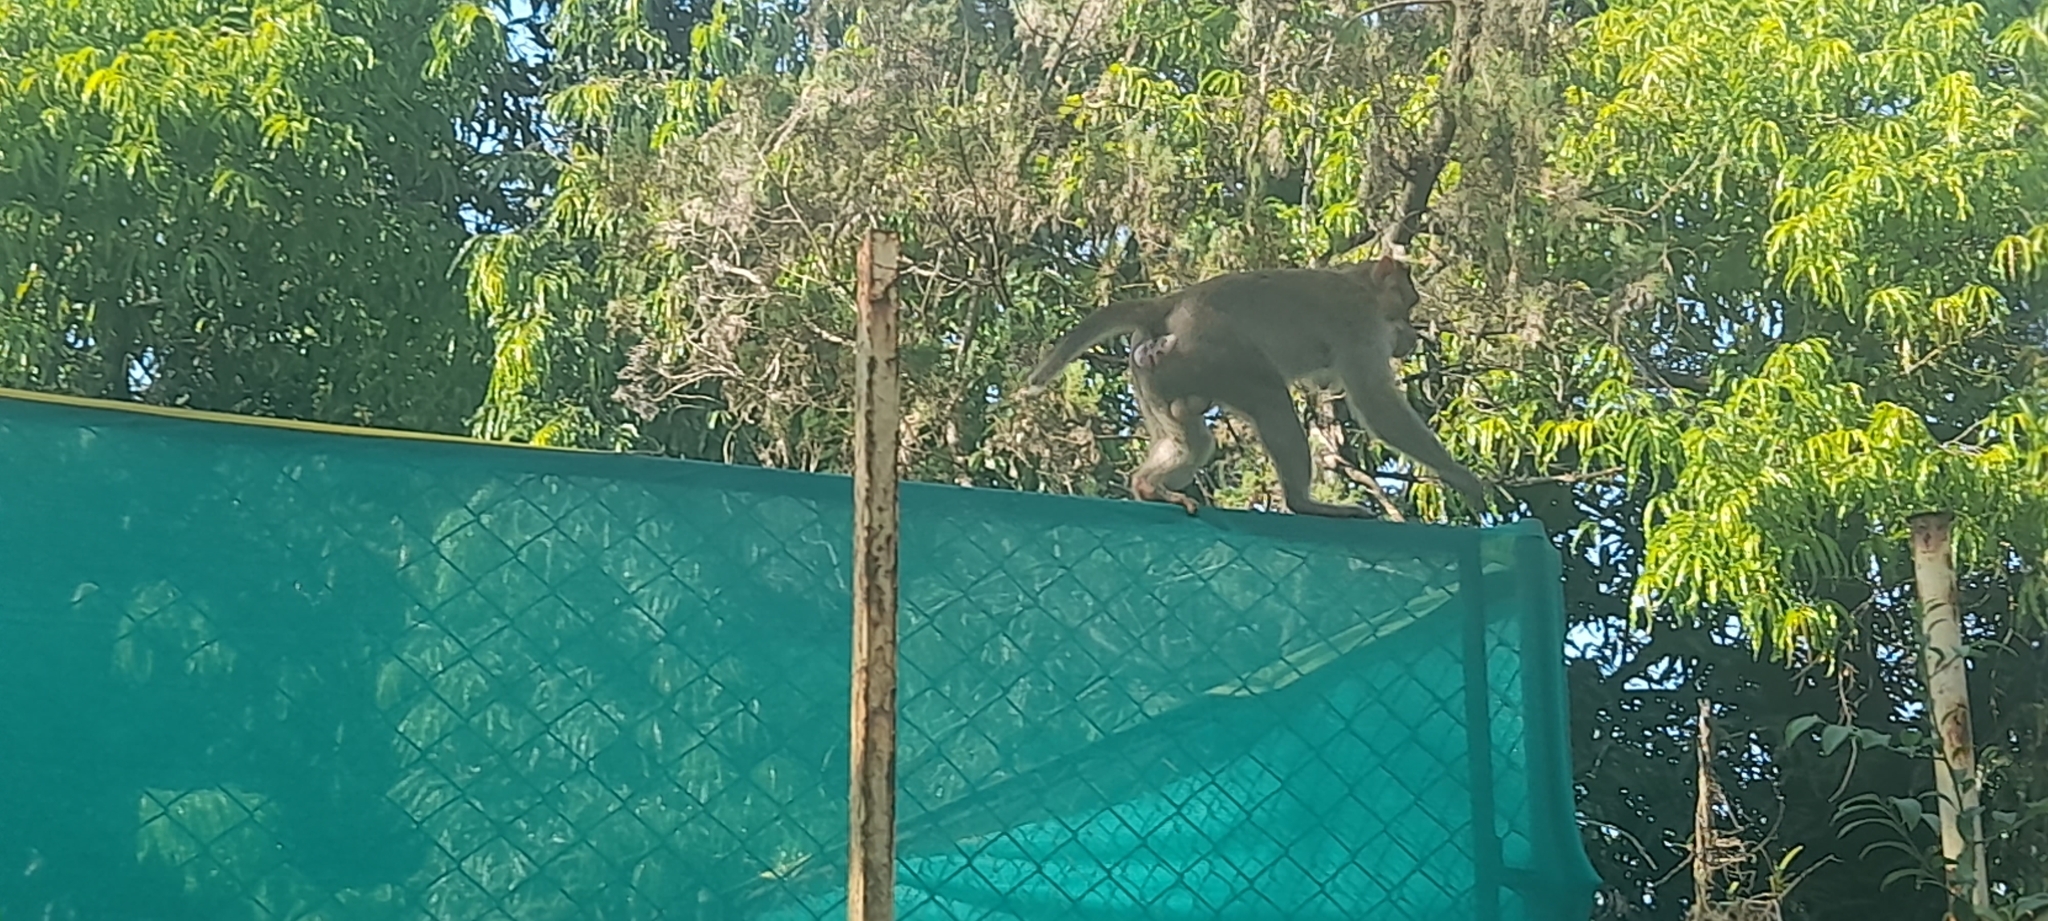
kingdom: Animalia
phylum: Chordata
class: Mammalia
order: Primates
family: Cercopithecidae
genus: Macaca
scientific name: Macaca radiata
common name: Bonnet macaque
